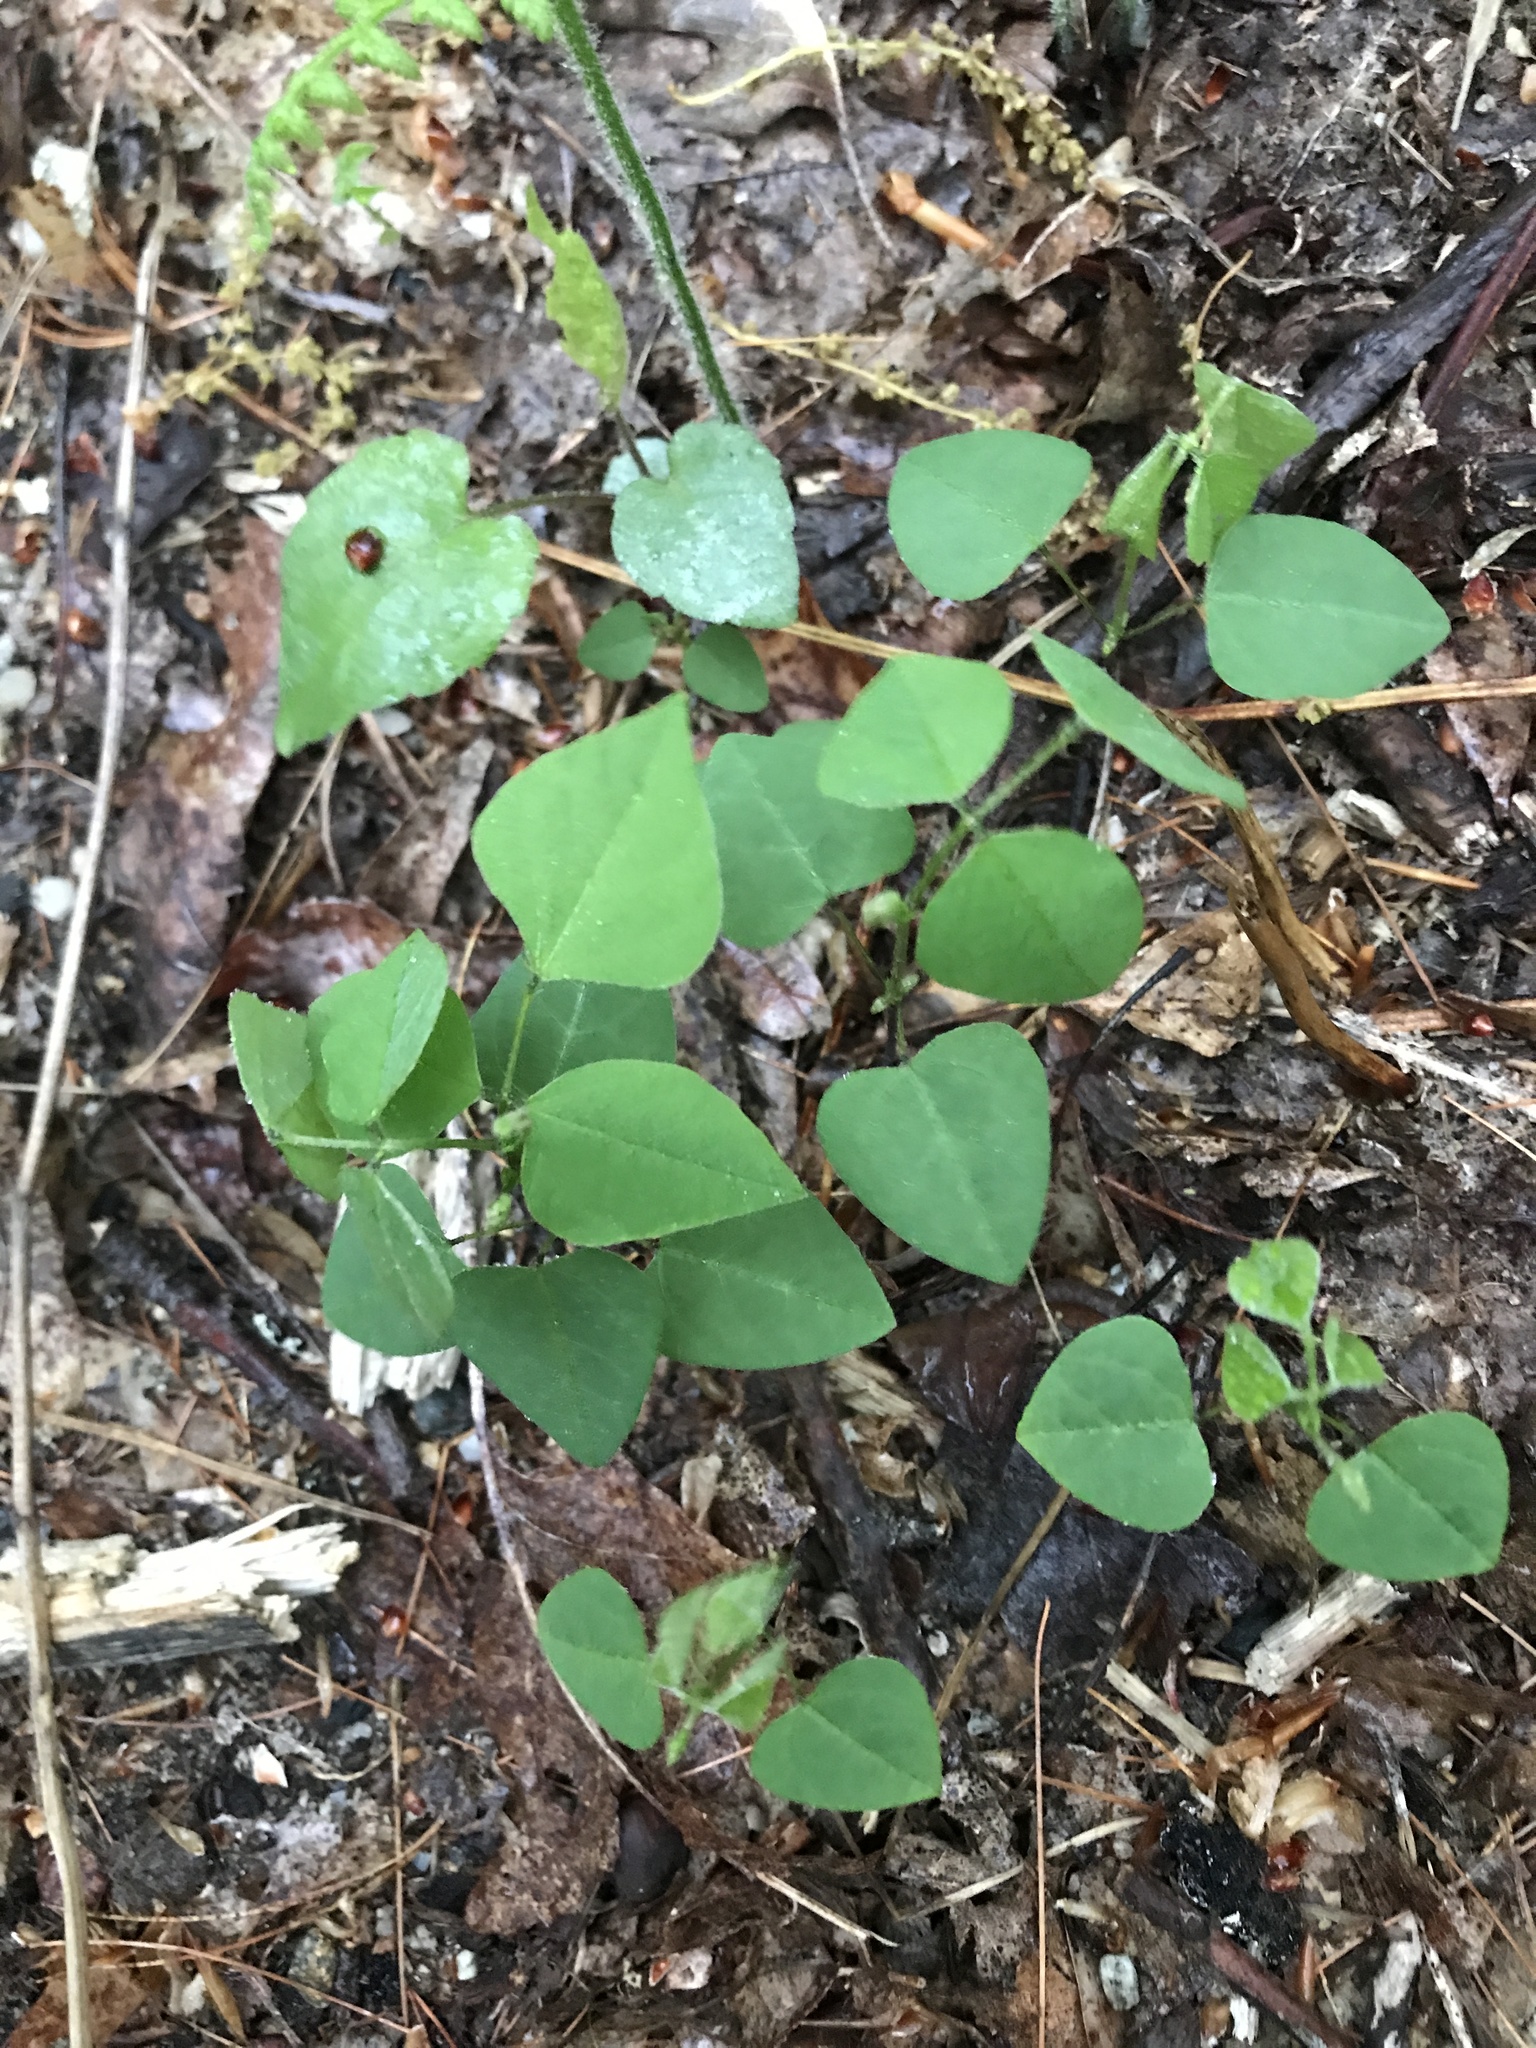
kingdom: Plantae
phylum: Tracheophyta
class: Magnoliopsida
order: Fabales
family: Fabaceae
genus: Amphicarpaea
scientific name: Amphicarpaea bracteata
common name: American hog peanut
